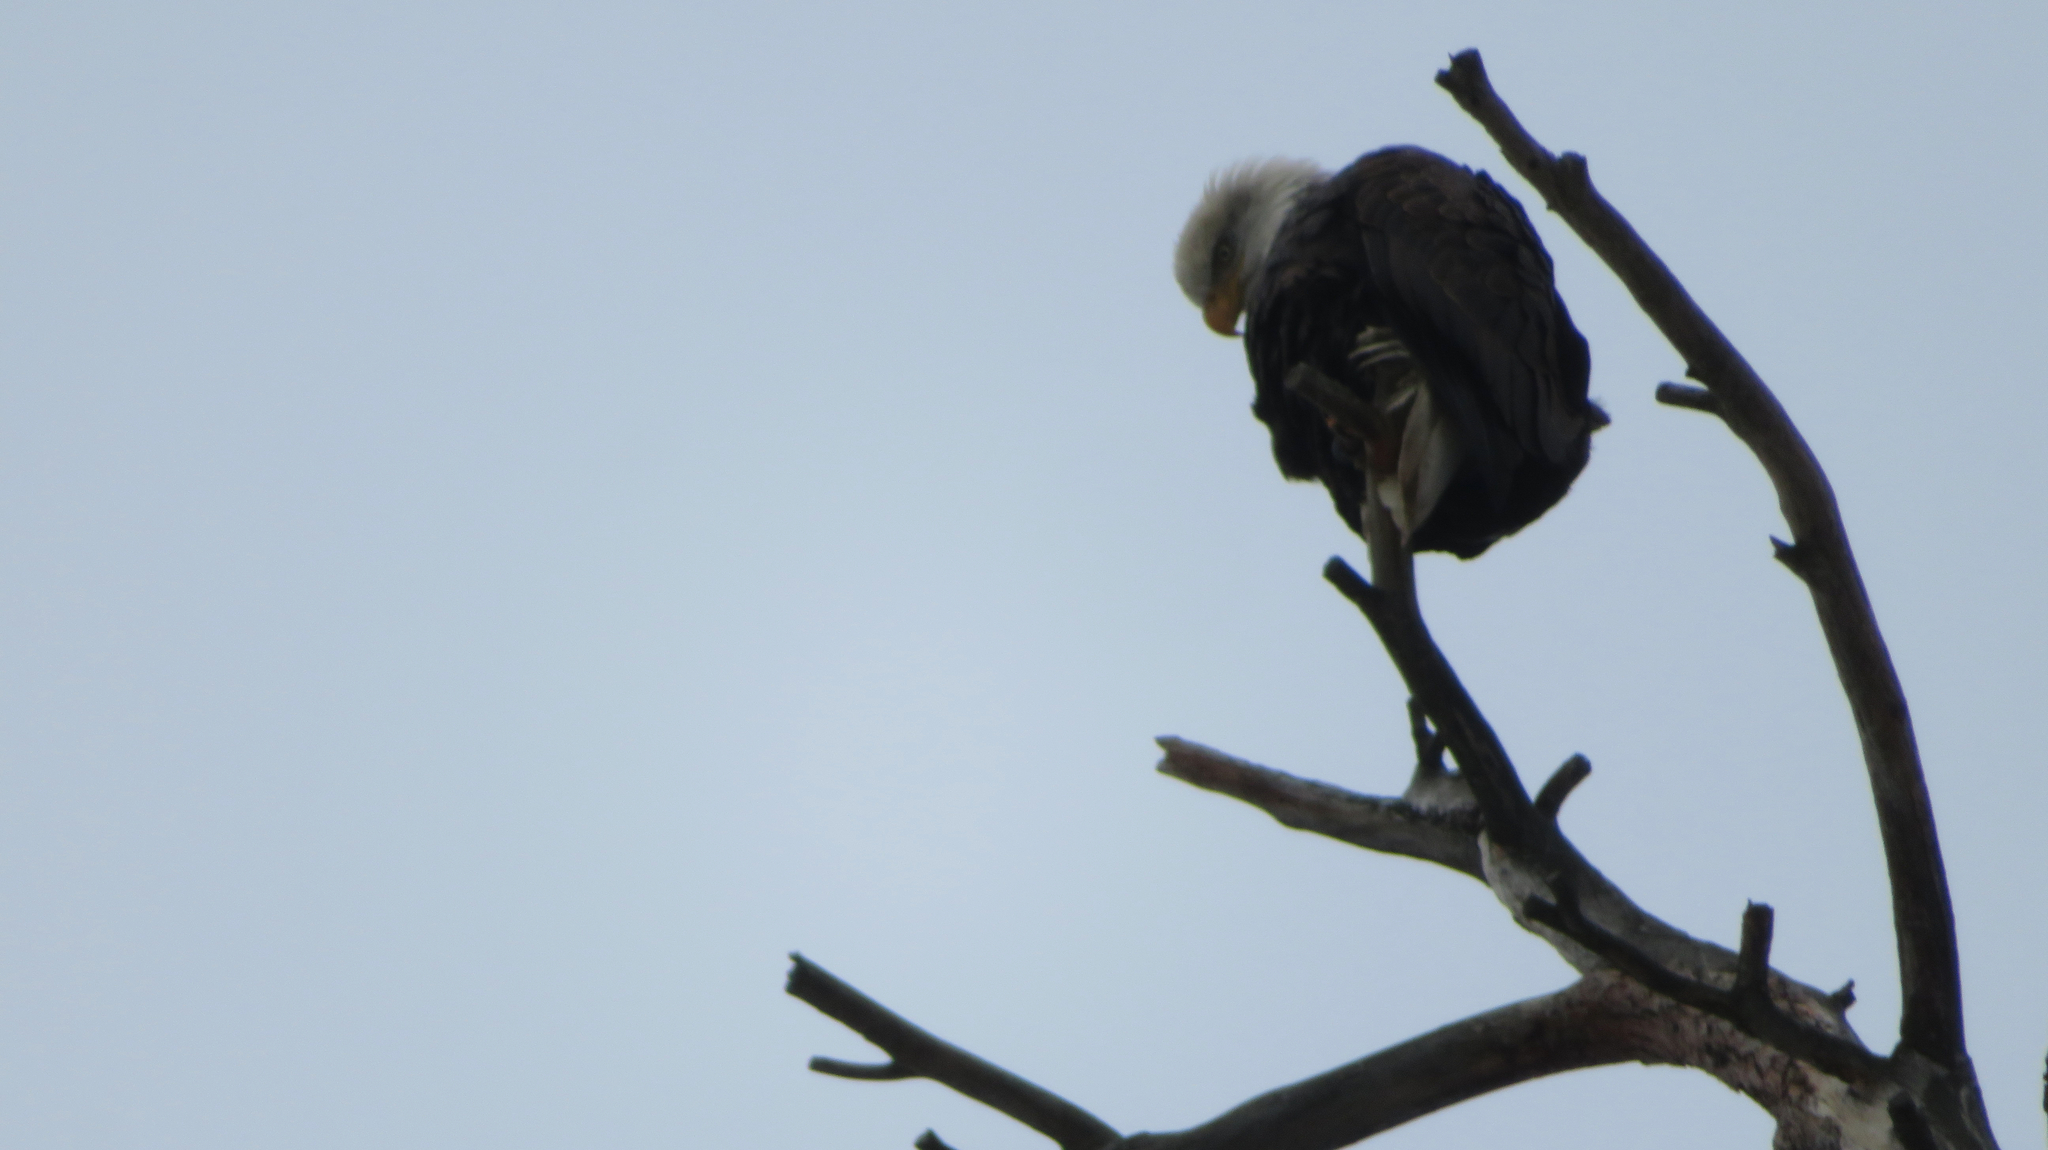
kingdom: Animalia
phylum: Chordata
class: Aves
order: Accipitriformes
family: Accipitridae
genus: Haliaeetus
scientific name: Haliaeetus leucocephalus
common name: Bald eagle
